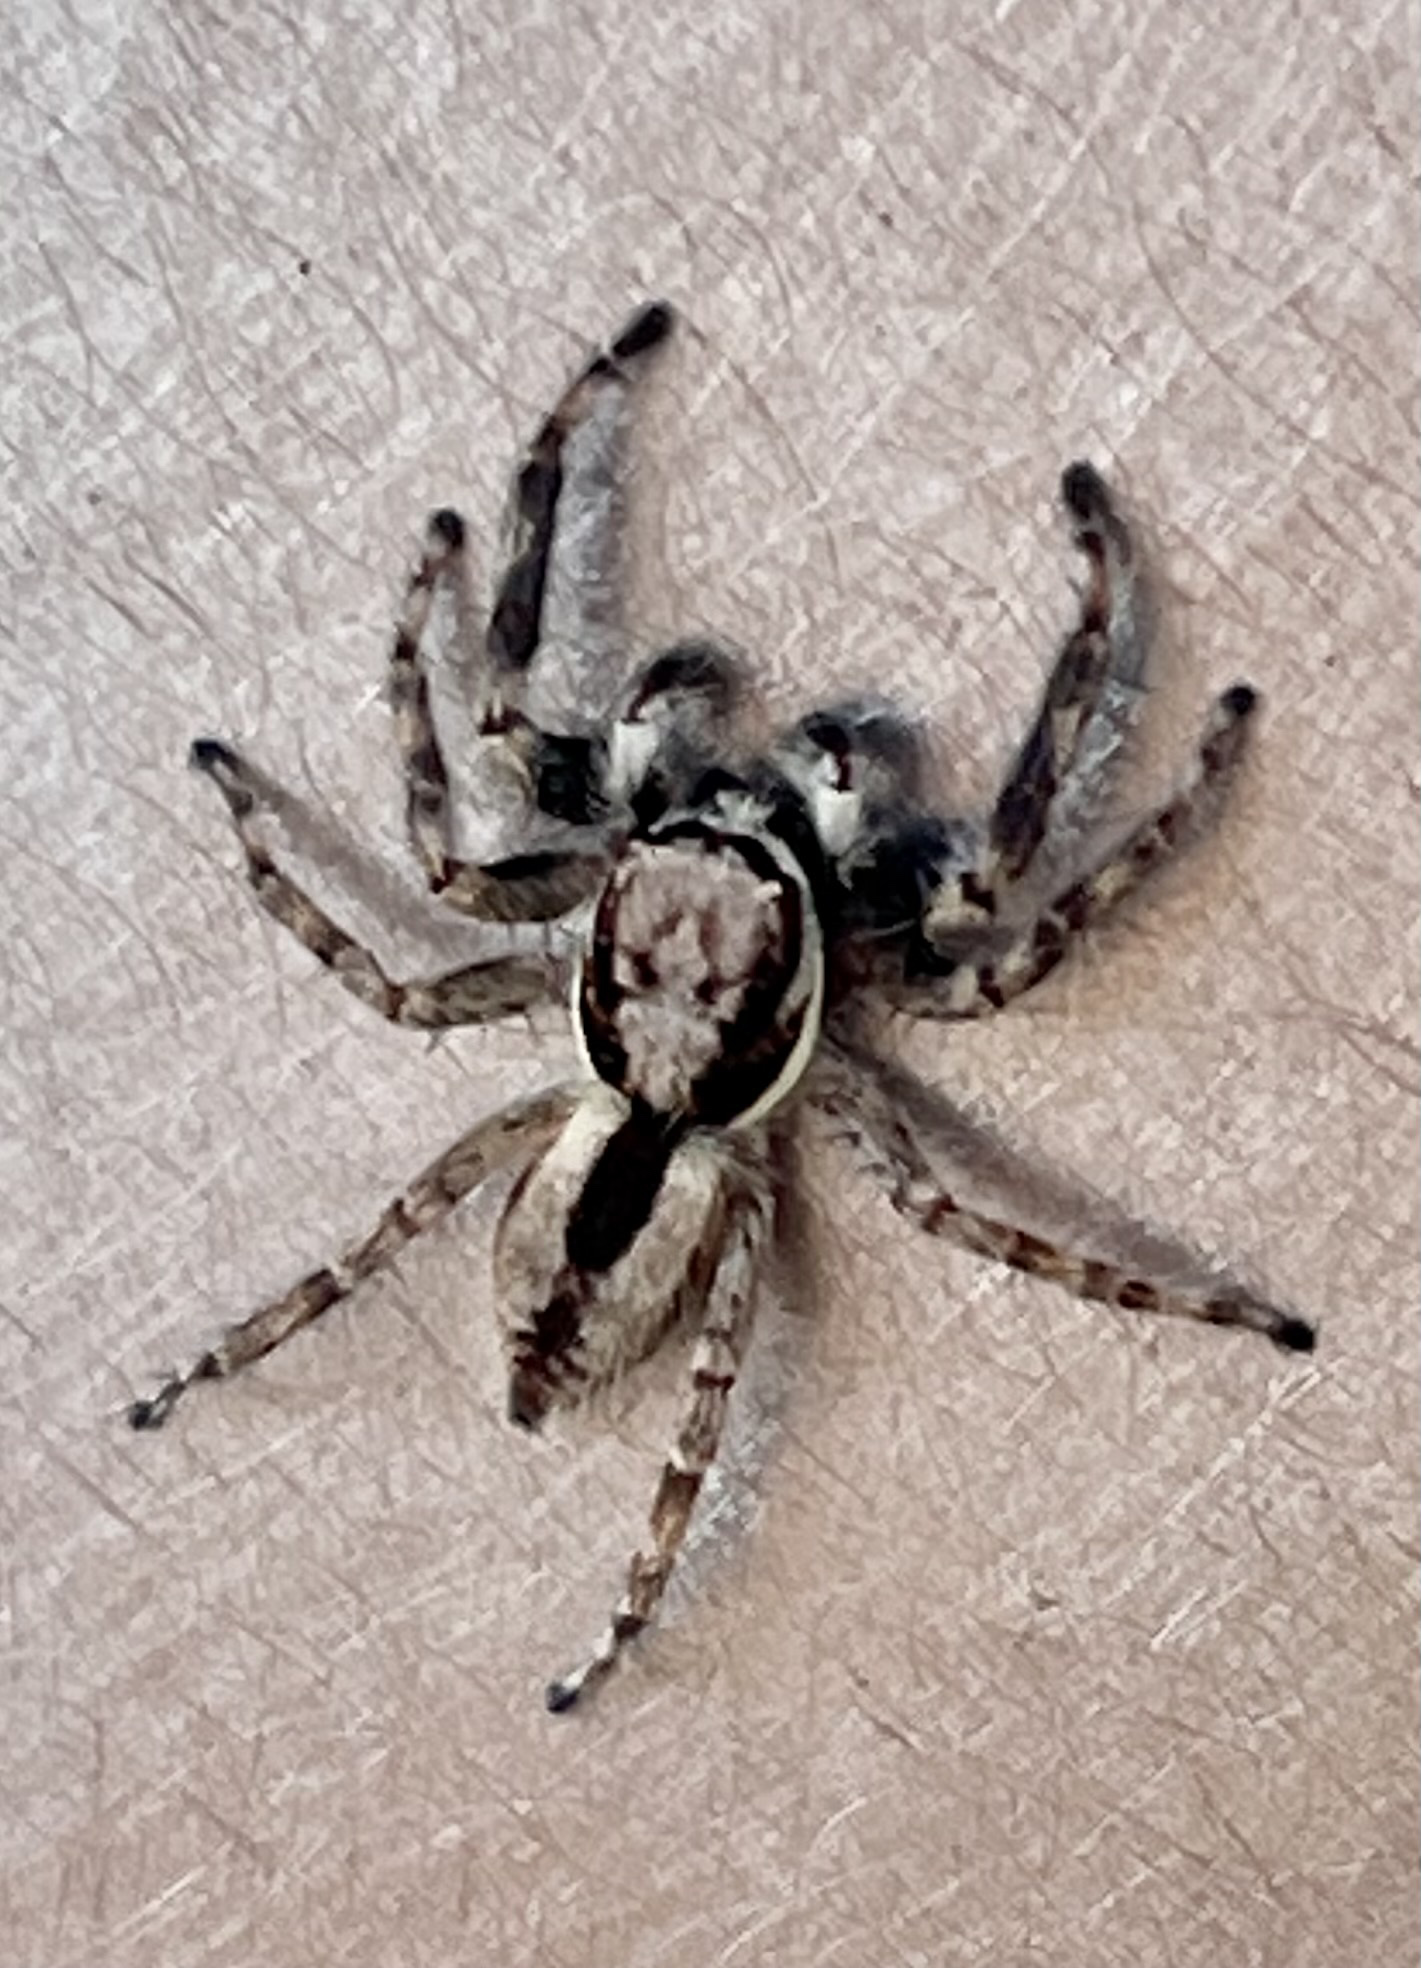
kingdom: Animalia
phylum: Arthropoda
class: Arachnida
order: Araneae
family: Salticidae
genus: Menemerus
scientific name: Menemerus bivittatus
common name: Gray wall jumper
